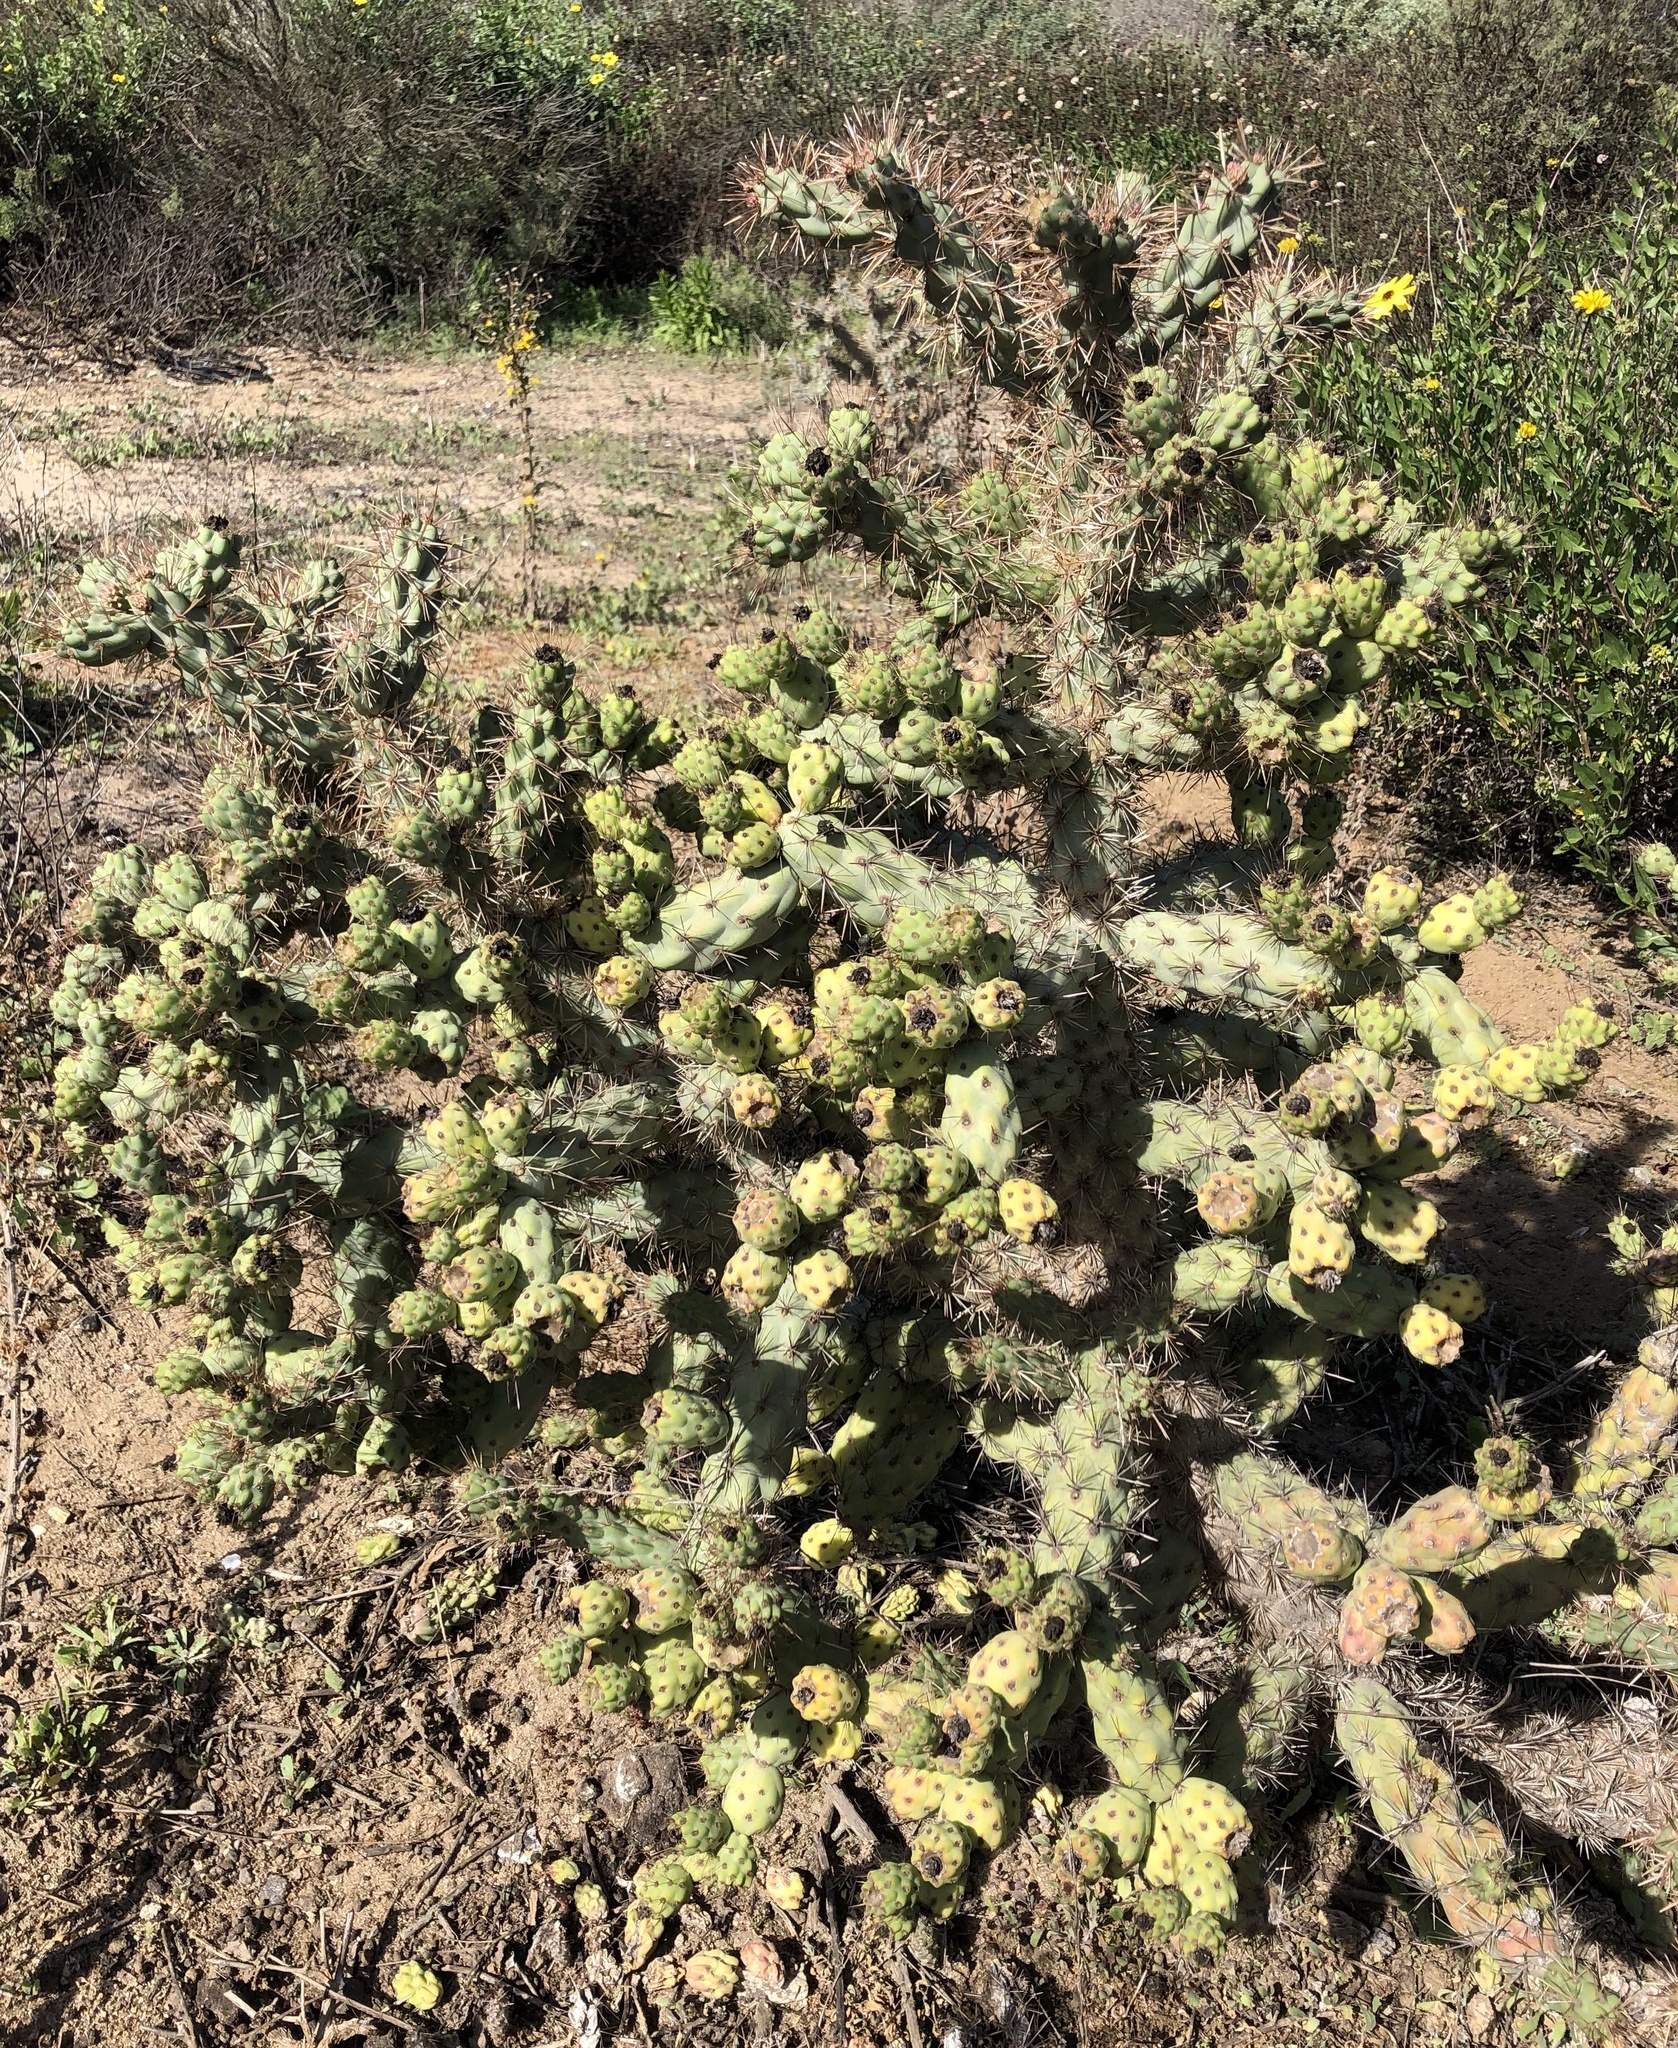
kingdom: Plantae
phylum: Tracheophyta
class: Magnoliopsida
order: Caryophyllales
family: Cactaceae
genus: Cylindropuntia
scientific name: Cylindropuntia prolifera
